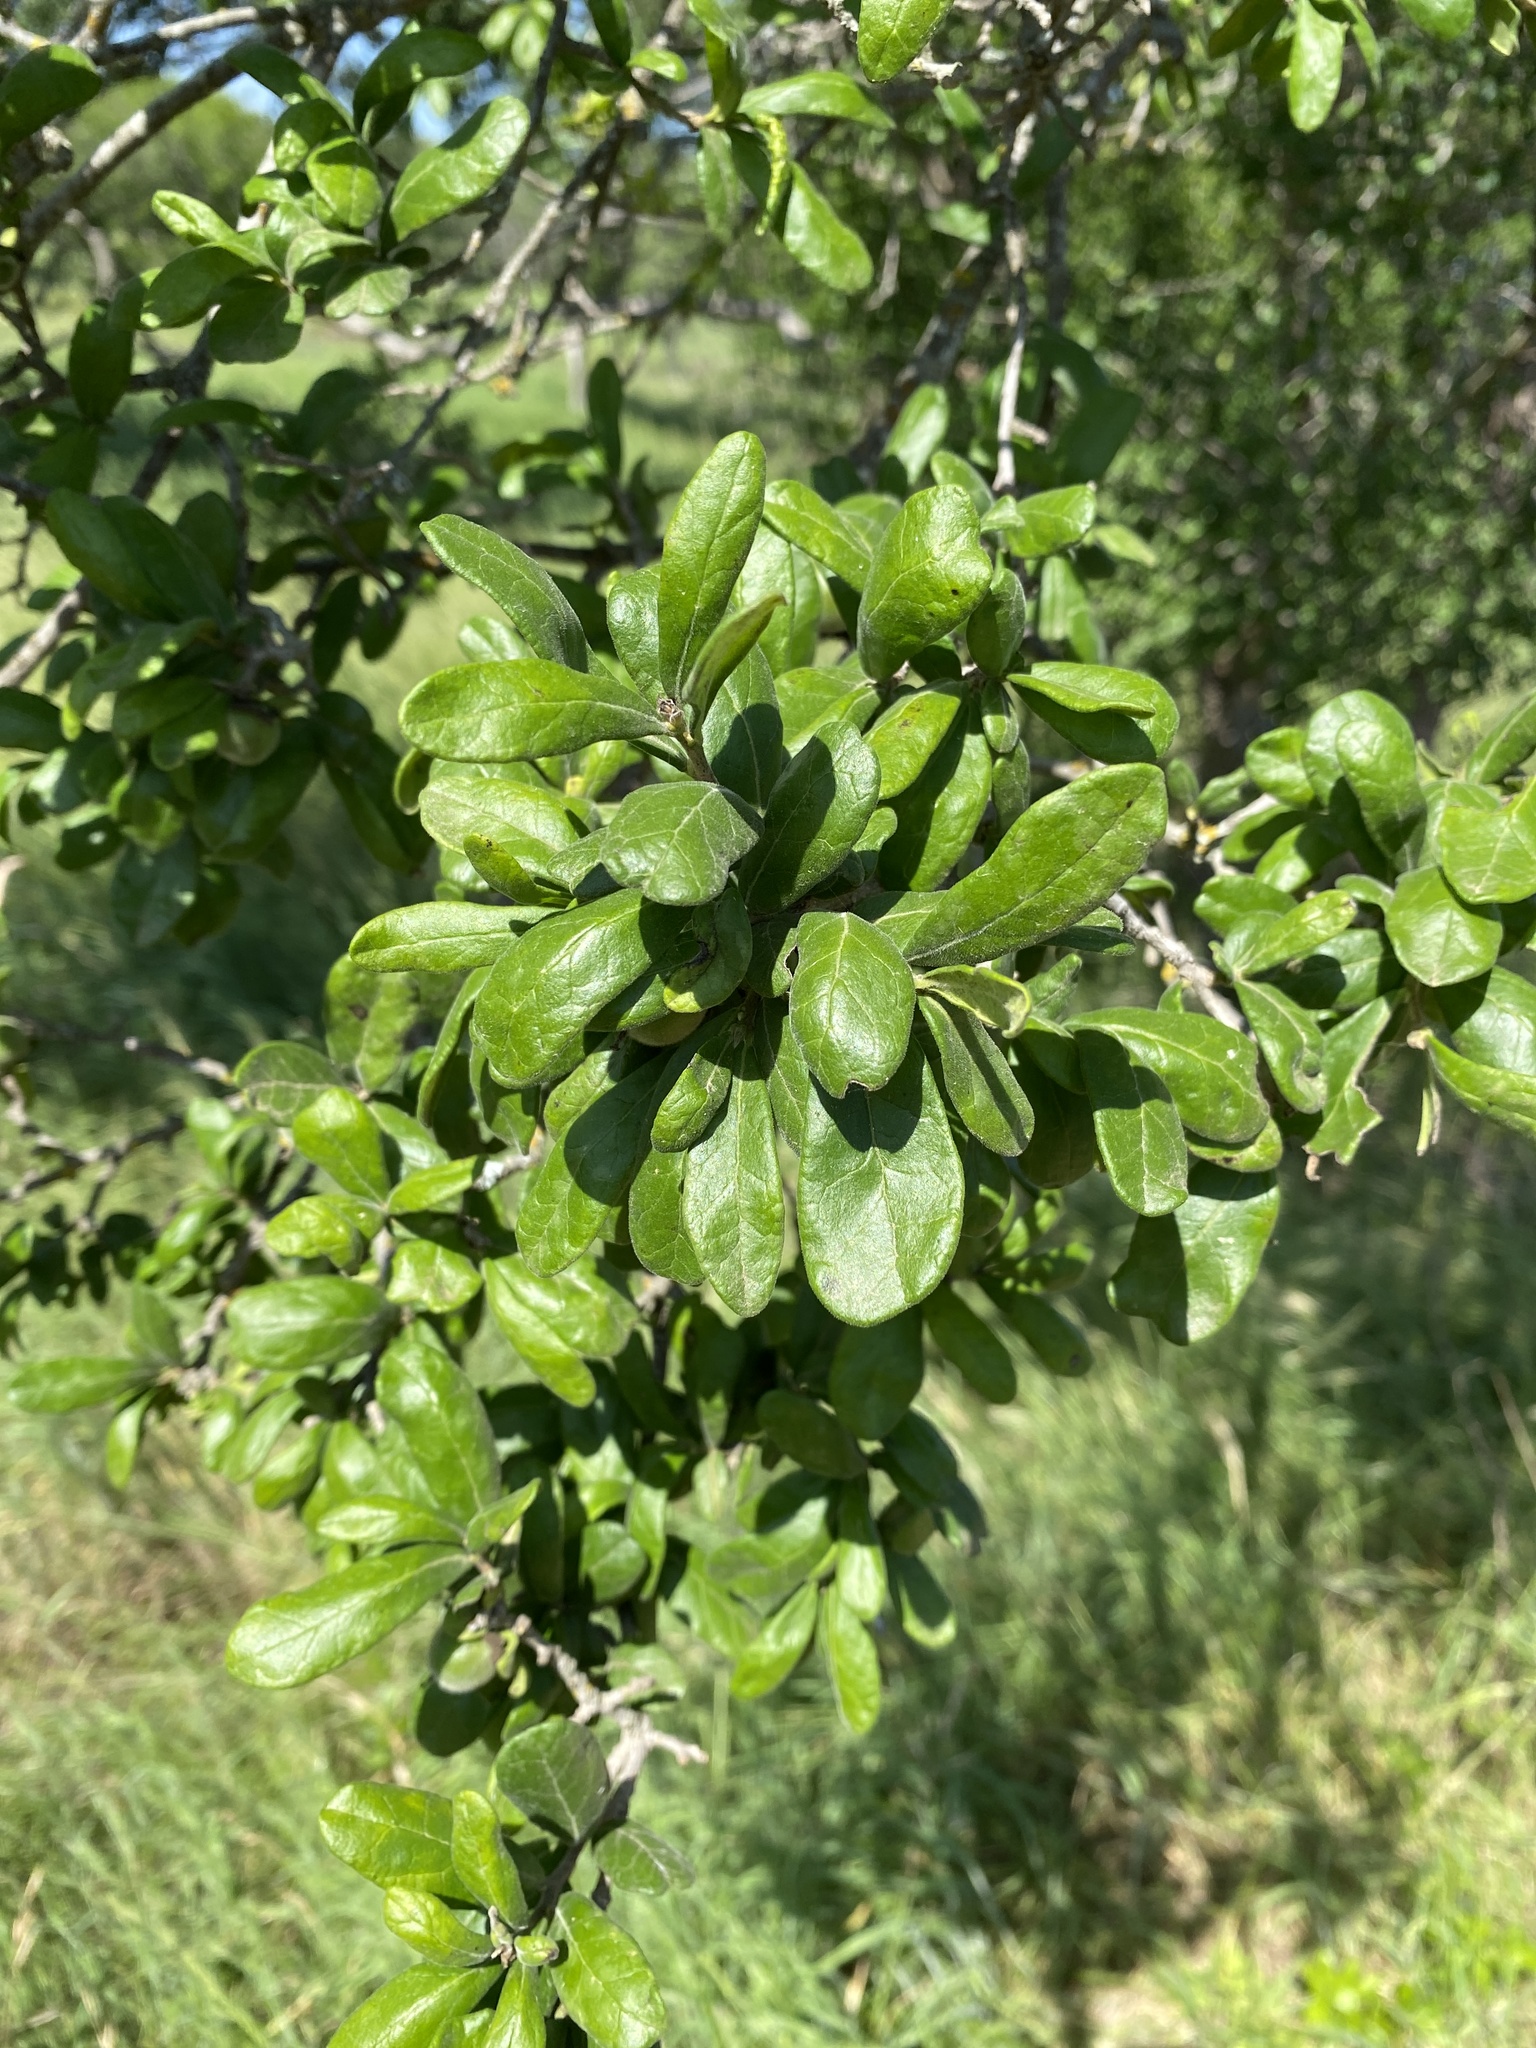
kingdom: Plantae
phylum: Tracheophyta
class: Magnoliopsida
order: Ericales
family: Ebenaceae
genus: Diospyros
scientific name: Diospyros texana
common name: Texas persimmon
